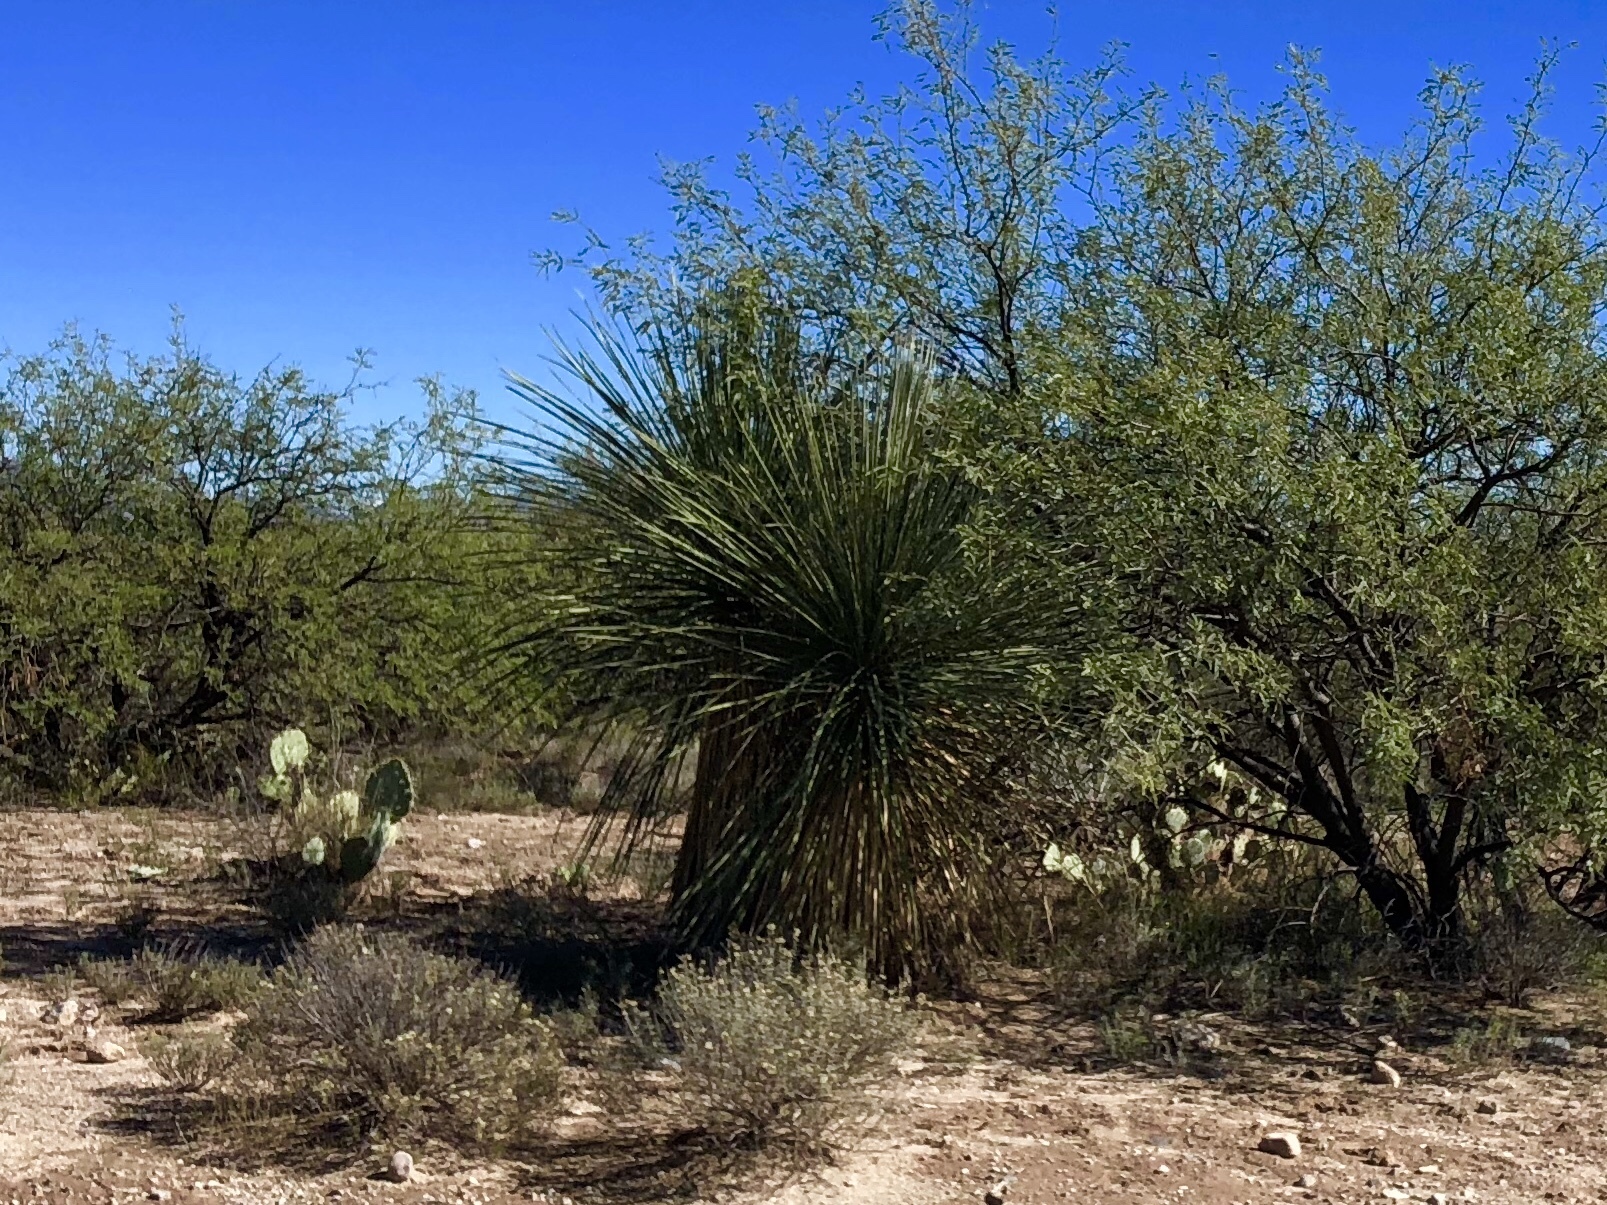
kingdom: Plantae
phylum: Tracheophyta
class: Liliopsida
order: Asparagales
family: Asparagaceae
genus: Yucca
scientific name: Yucca elata
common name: Palmella
